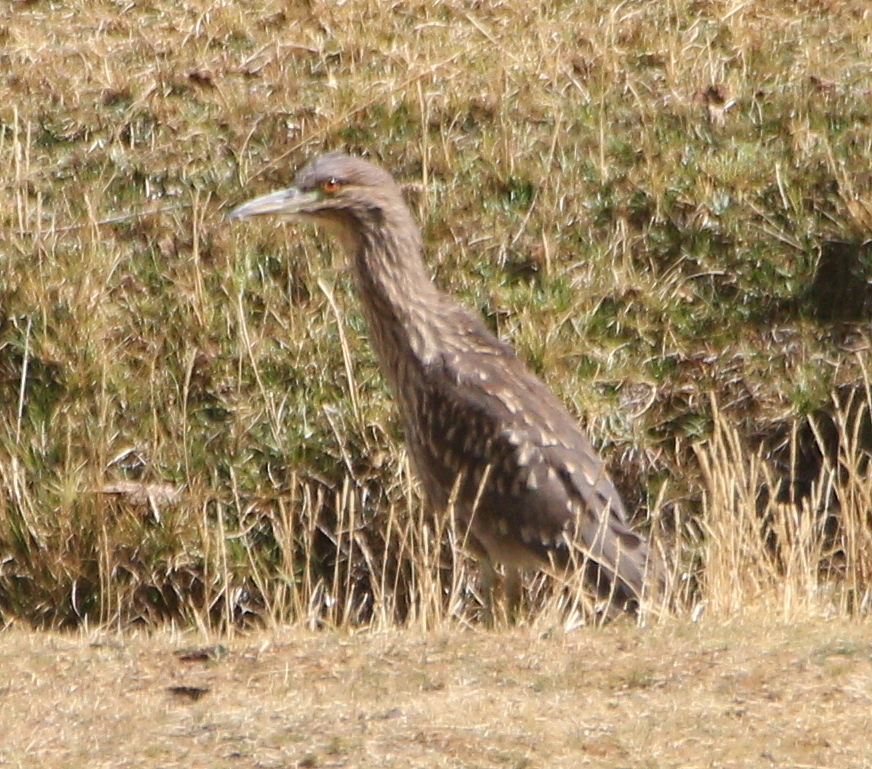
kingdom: Animalia
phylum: Chordata
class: Aves
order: Pelecaniformes
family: Ardeidae
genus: Nycticorax
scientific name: Nycticorax nycticorax
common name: Black-crowned night heron
